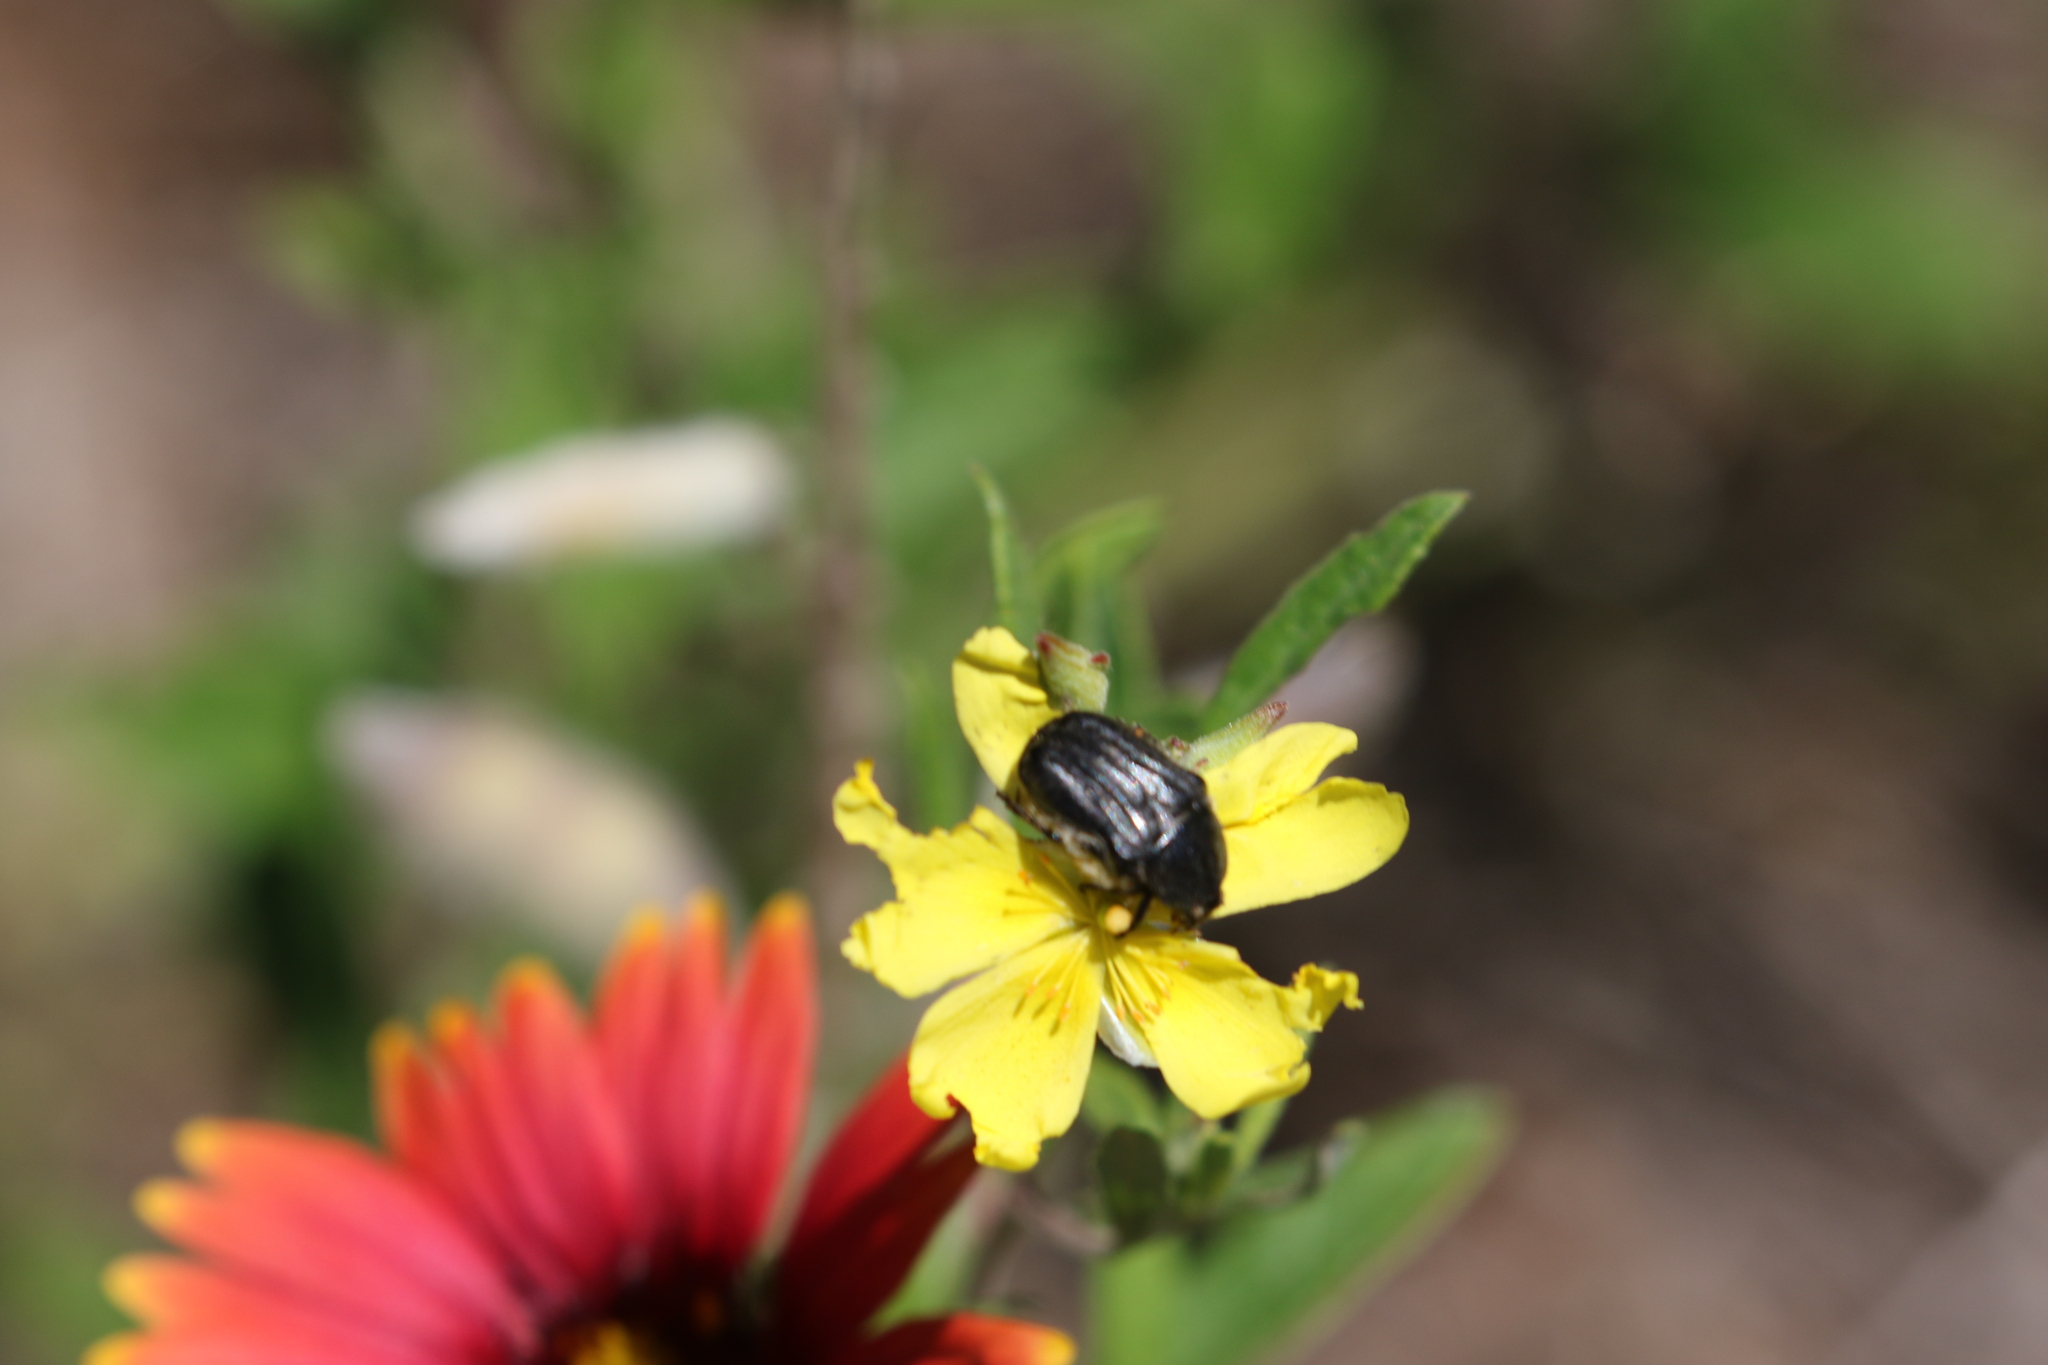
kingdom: Animalia
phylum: Arthropoda
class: Insecta
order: Coleoptera
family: Scarabaeidae
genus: Euphoria
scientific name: Euphoria kernii
